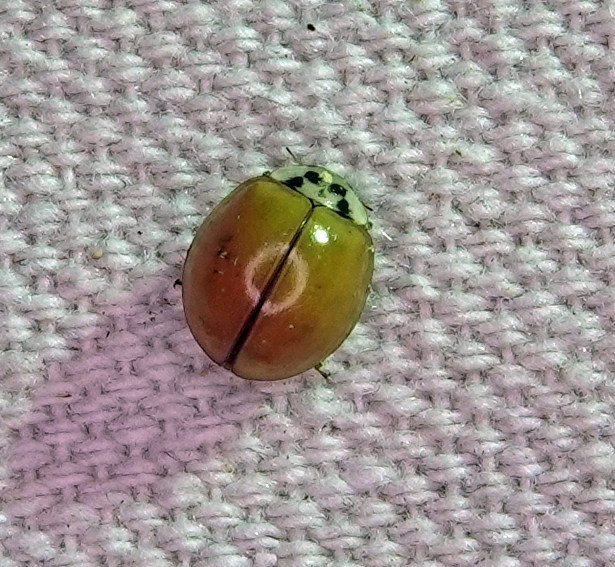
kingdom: Animalia
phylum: Arthropoda
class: Insecta
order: Coleoptera
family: Coccinellidae
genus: Harmonia
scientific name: Harmonia axyridis
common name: Harlequin ladybird
